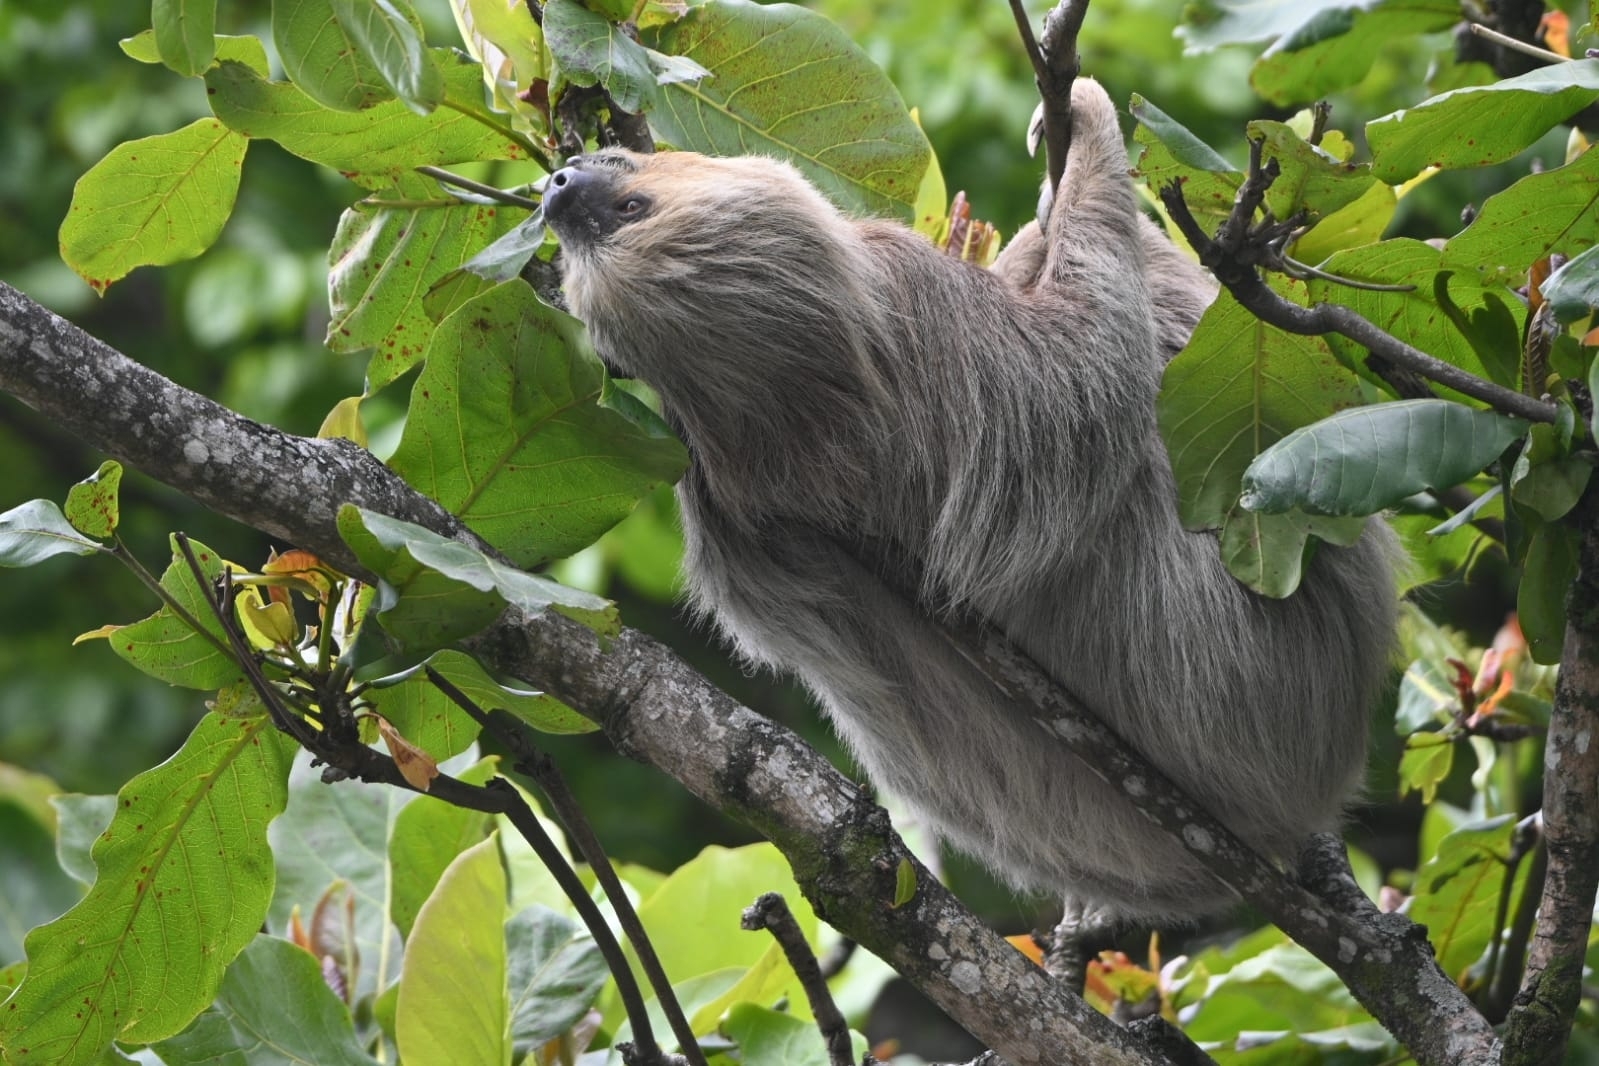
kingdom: Animalia
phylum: Chordata
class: Mammalia
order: Pilosa
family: Megalonychidae
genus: Choloepus
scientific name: Choloepus hoffmanni
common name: Hoffmann's two-toed sloth
